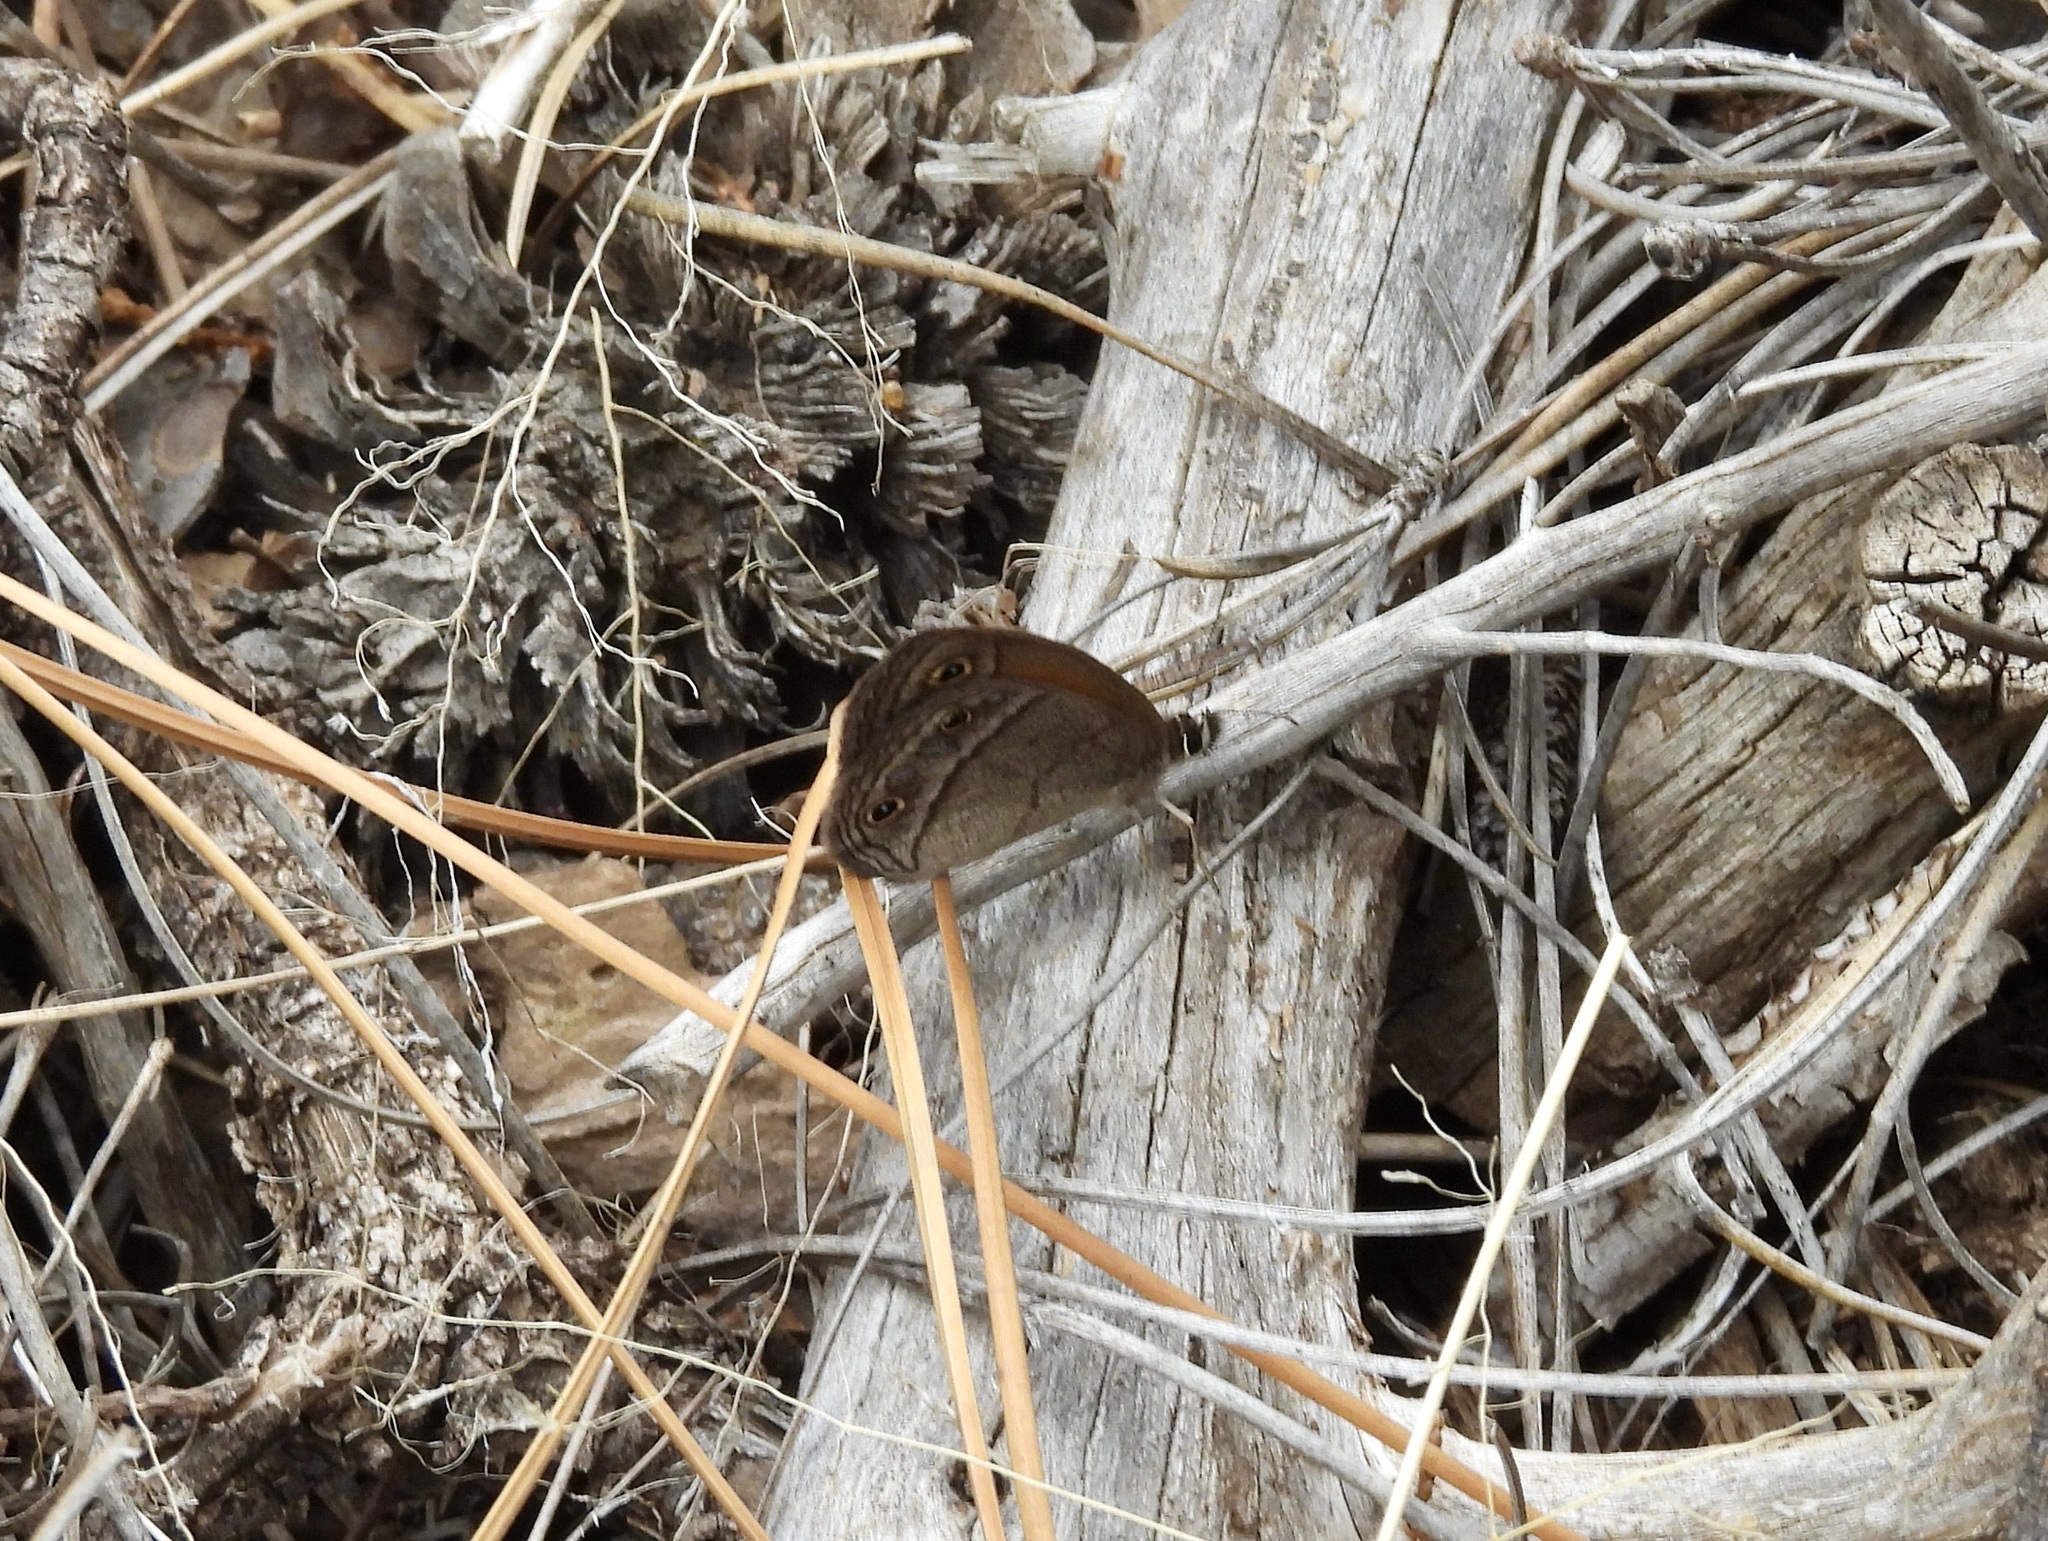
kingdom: Animalia
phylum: Arthropoda
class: Insecta
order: Lepidoptera
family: Nymphalidae
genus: Euptychia
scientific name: Euptychia Cissia rubricata
